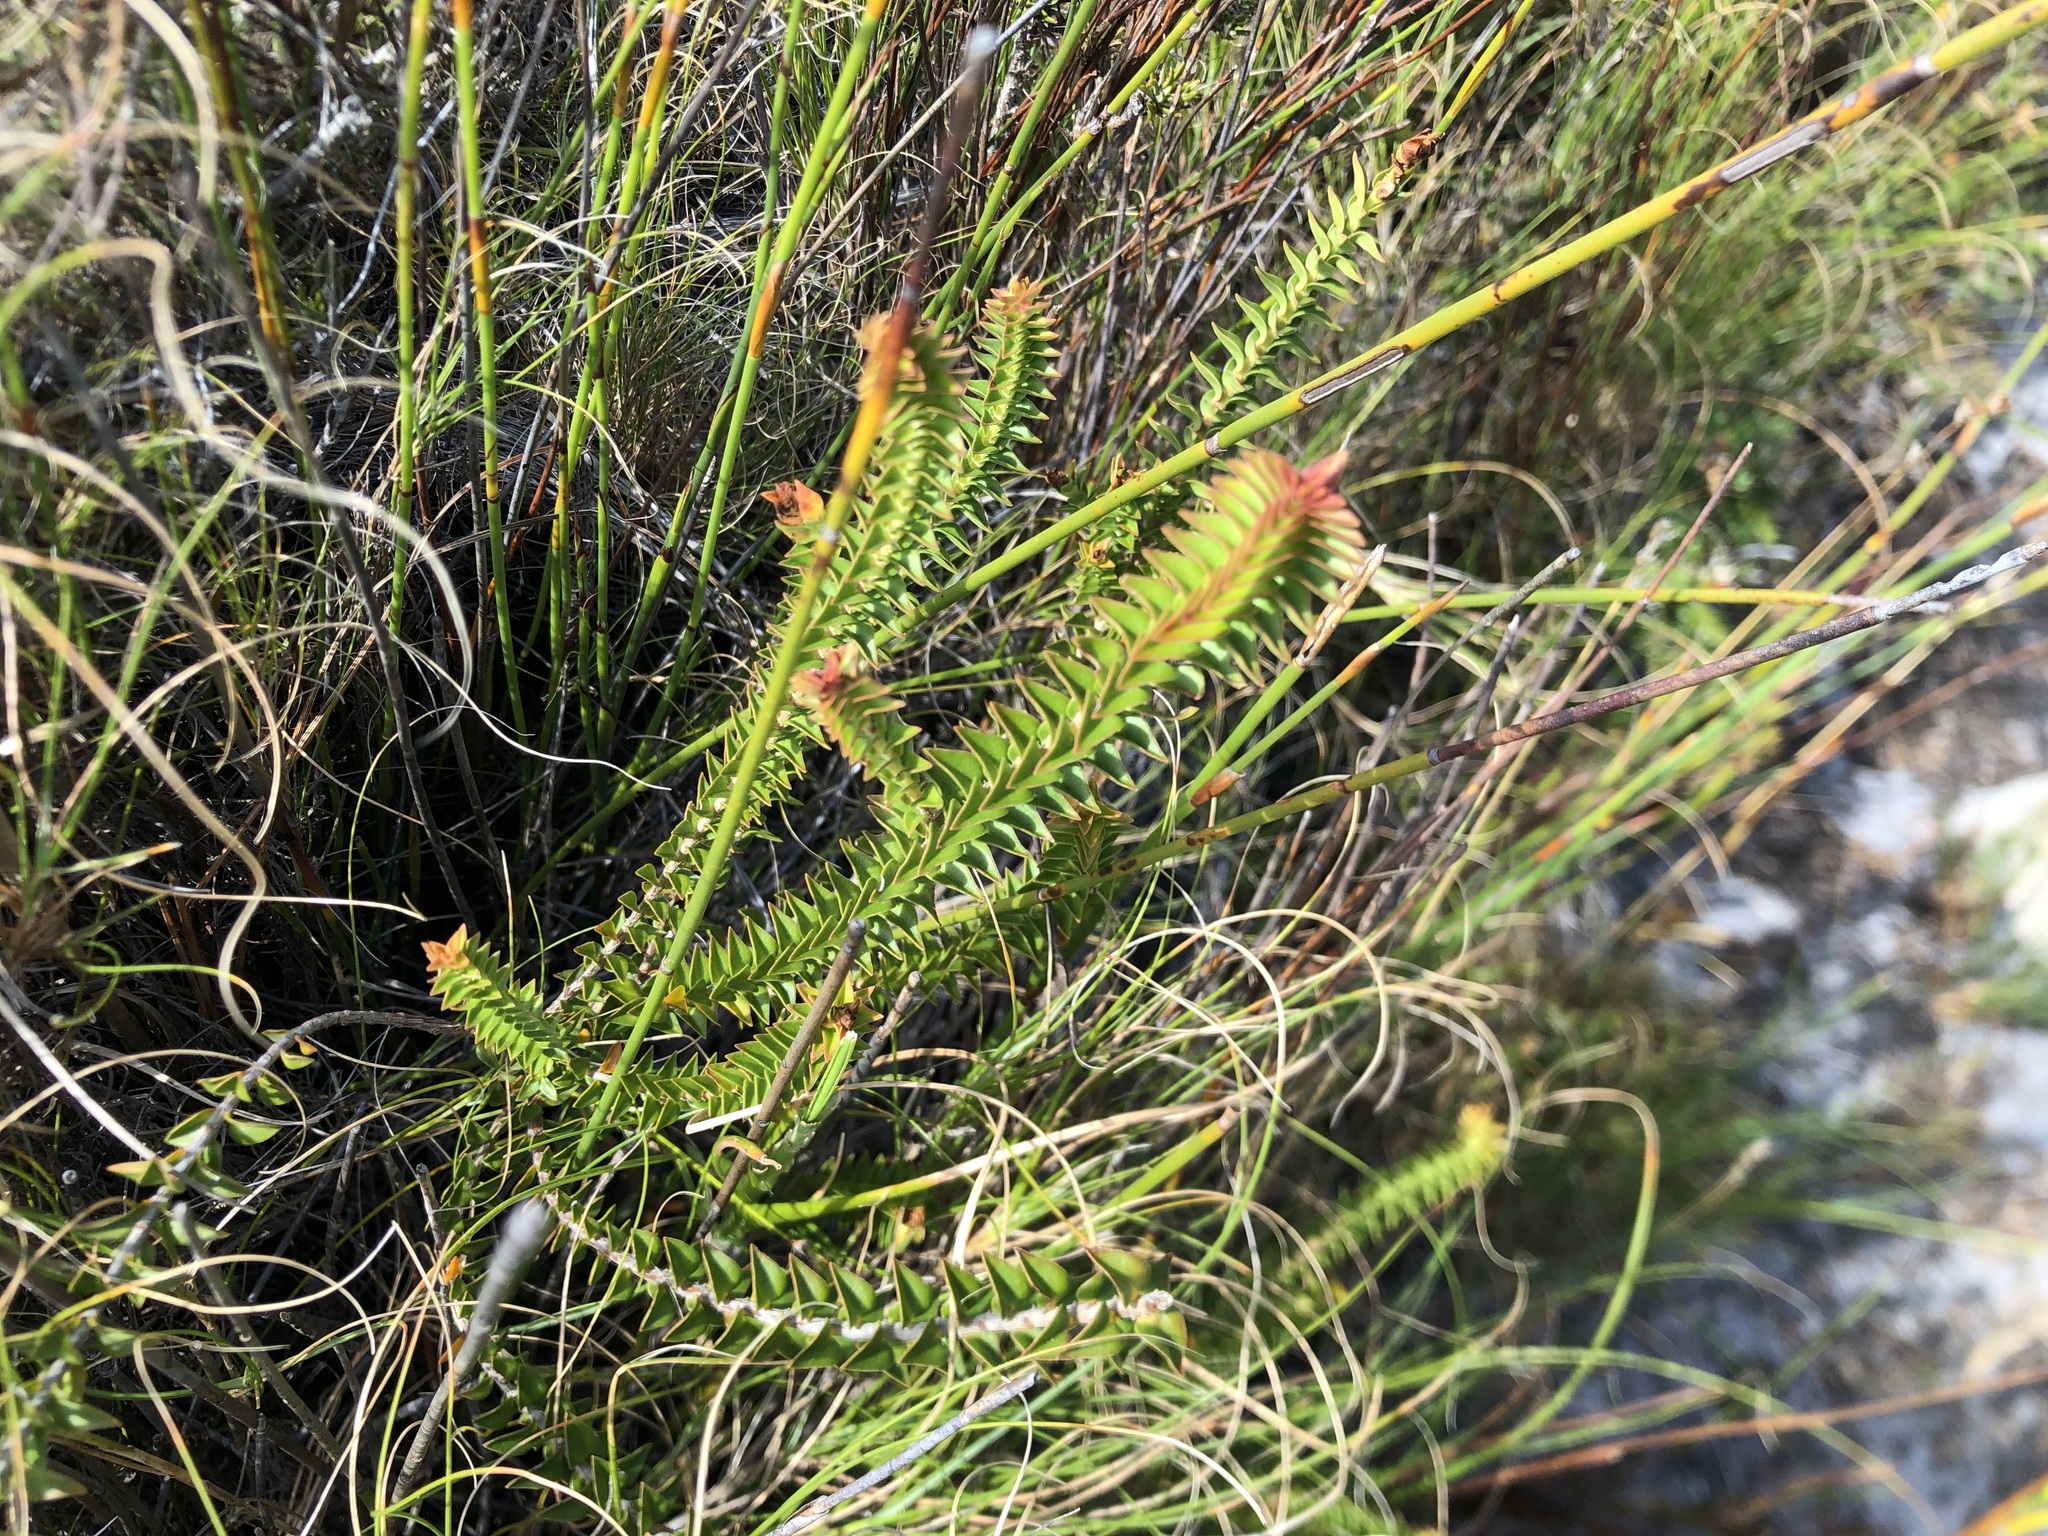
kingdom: Plantae
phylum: Tracheophyta
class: Magnoliopsida
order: Myrtales
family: Penaeaceae
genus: Penaea
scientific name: Penaea mucronata
